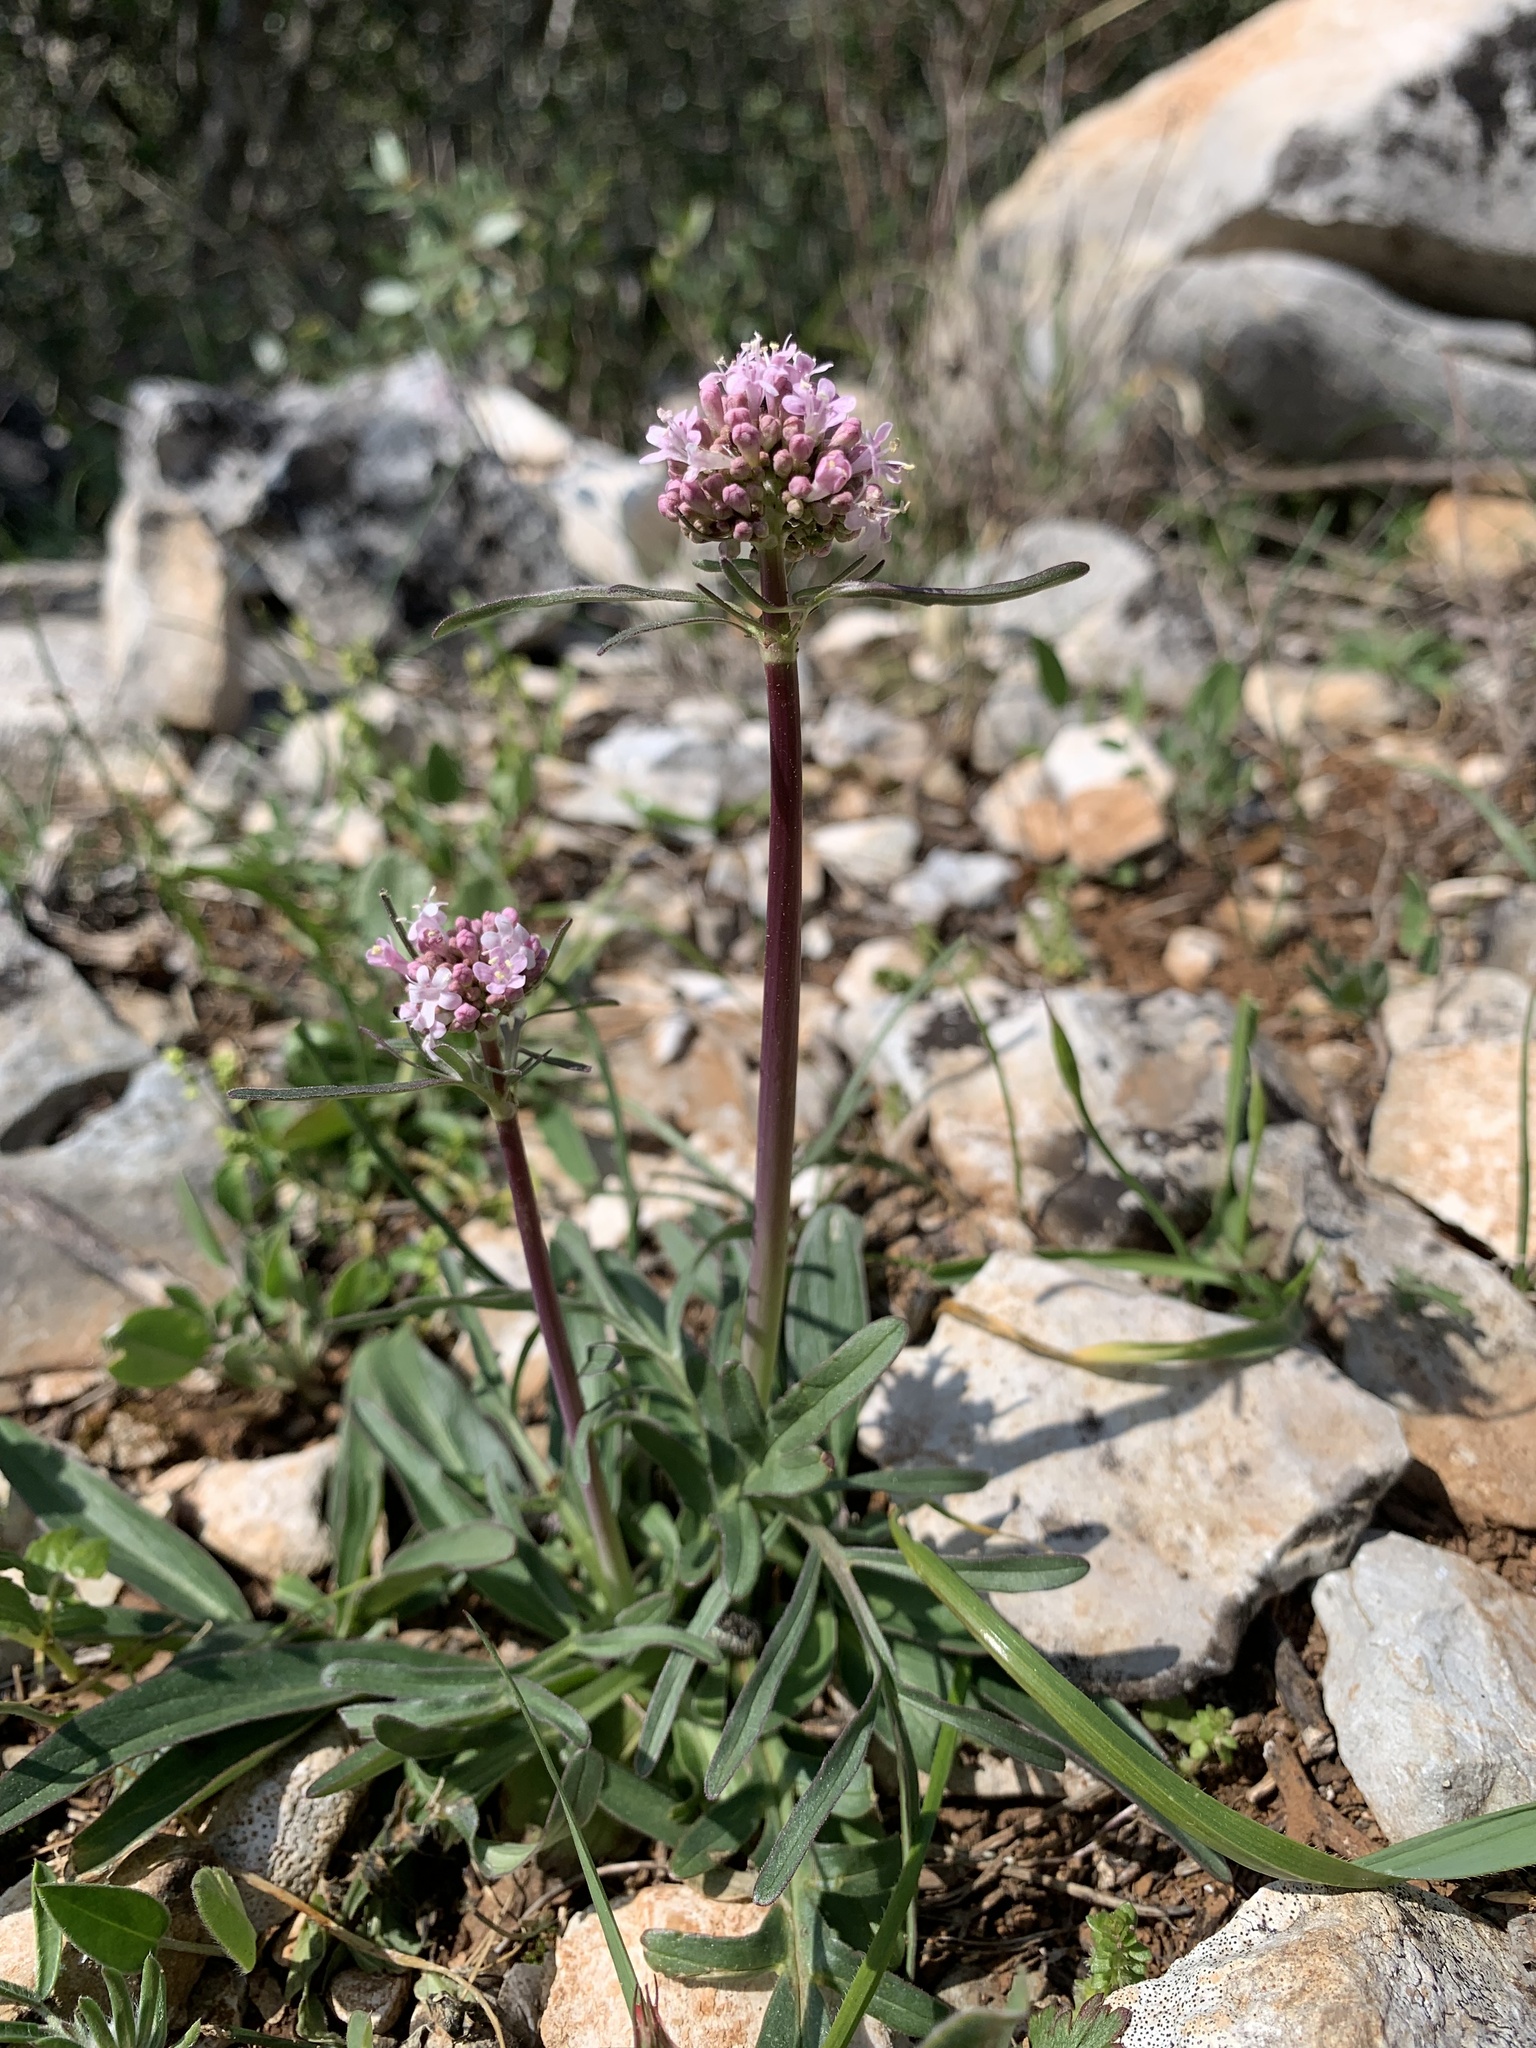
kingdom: Plantae
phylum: Tracheophyta
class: Magnoliopsida
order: Dipsacales
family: Caprifoliaceae
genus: Valeriana
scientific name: Valeriana tuberosa
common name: Tuberous valerian
